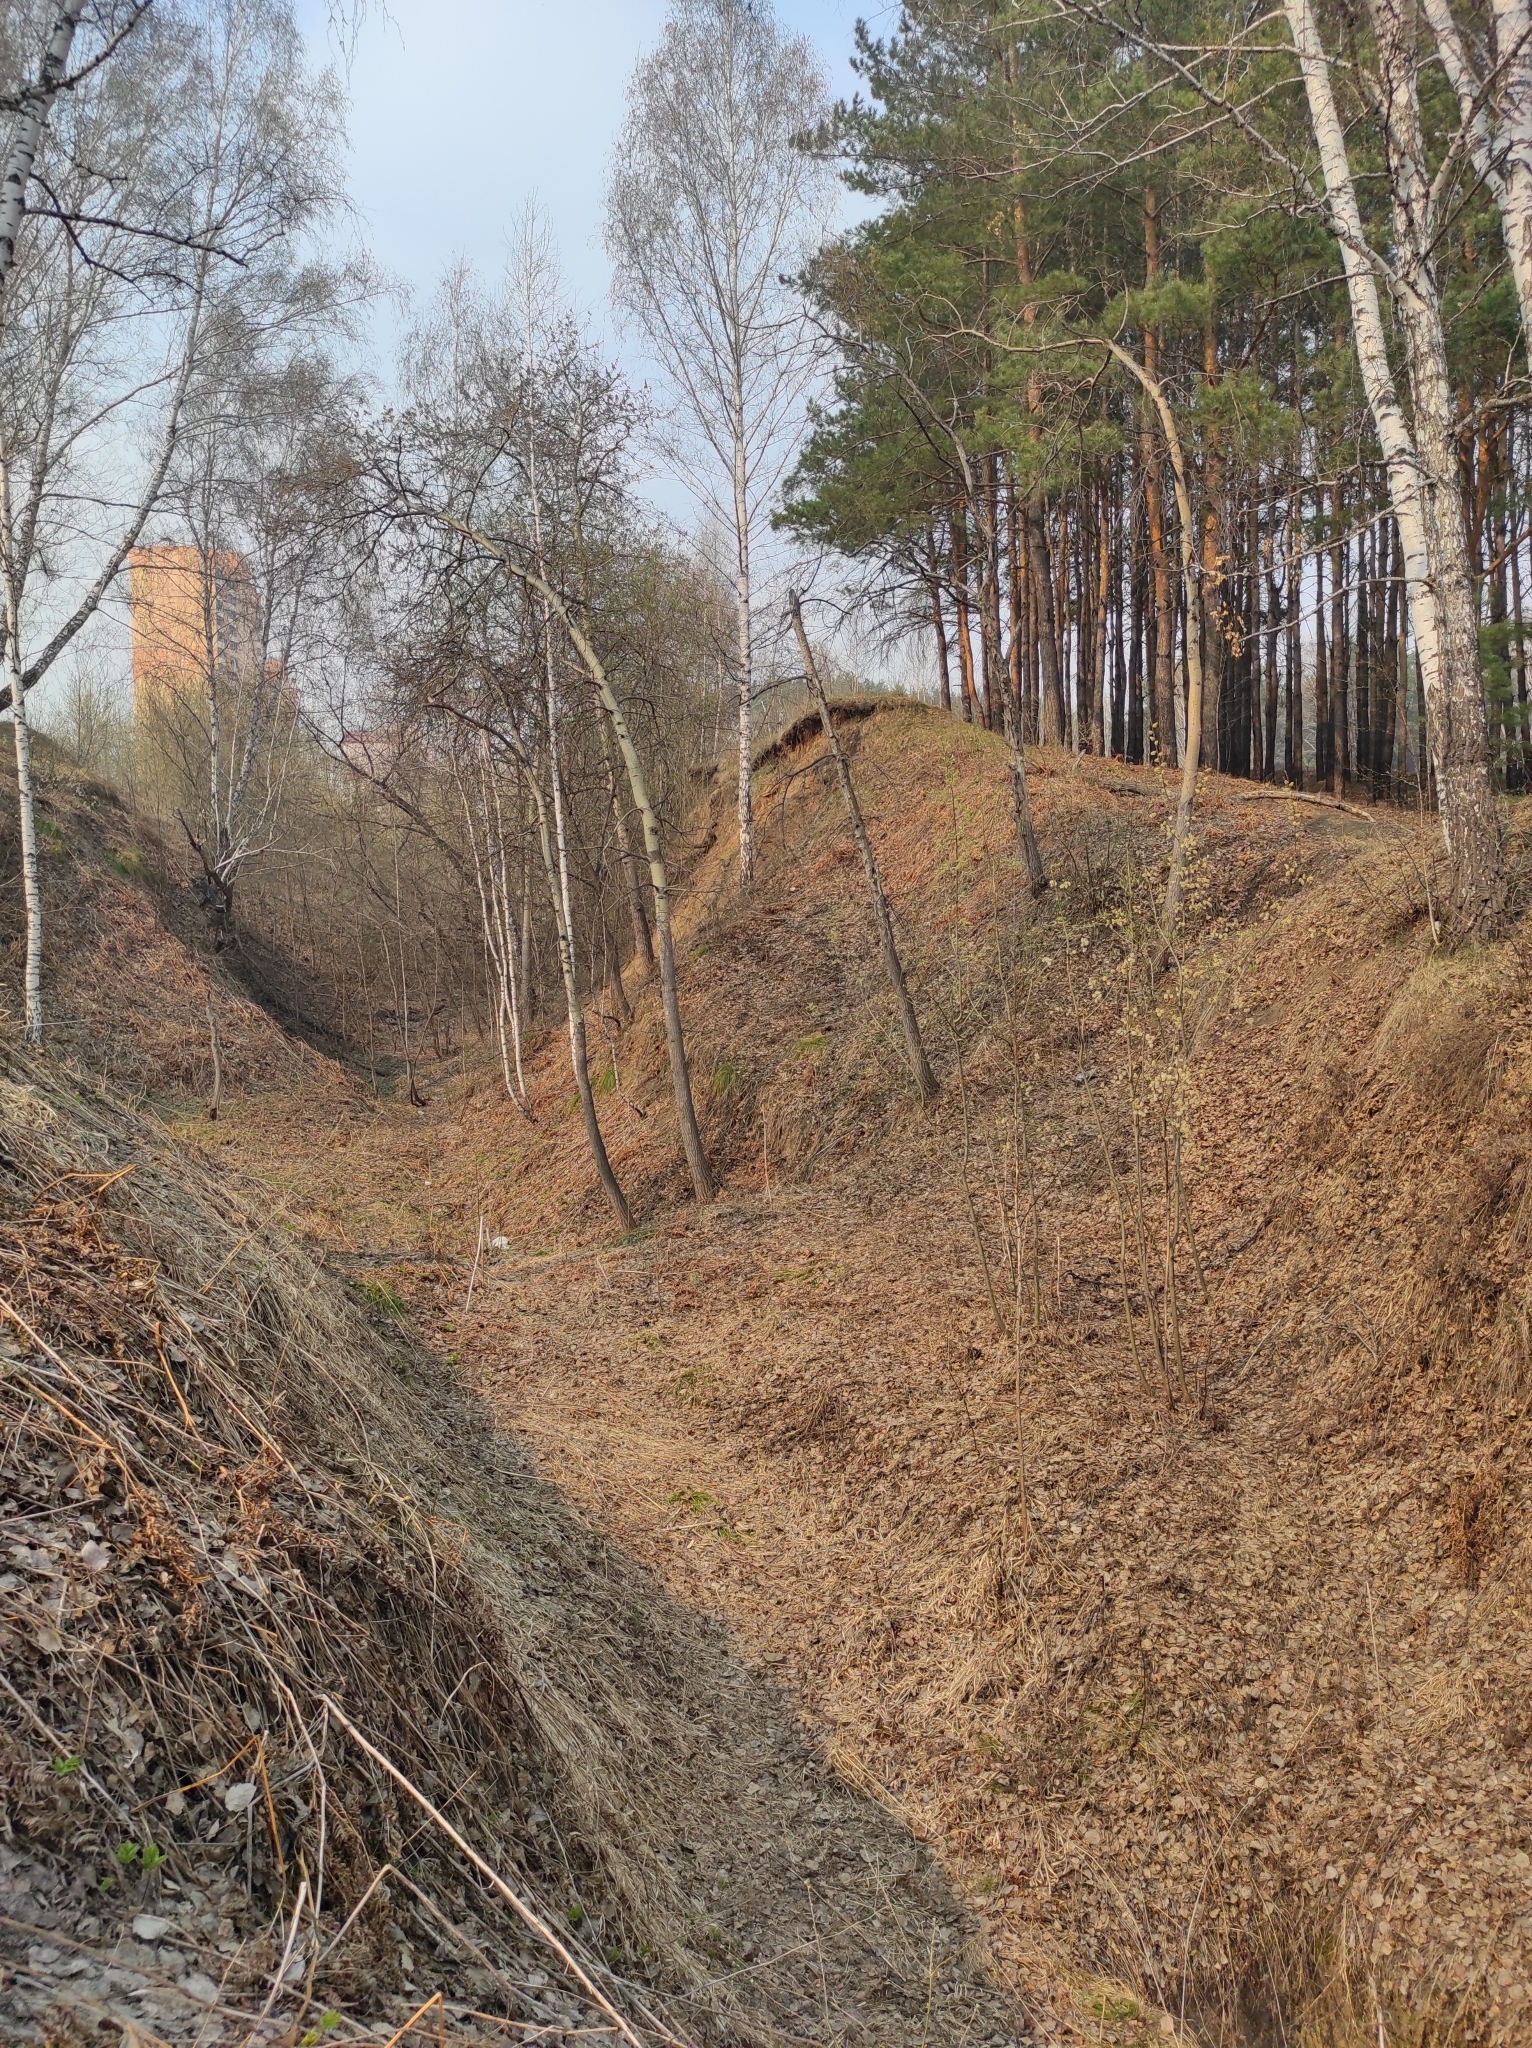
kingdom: Plantae
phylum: Tracheophyta
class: Pinopsida
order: Pinales
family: Pinaceae
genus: Pinus
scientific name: Pinus sylvestris
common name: Scots pine
